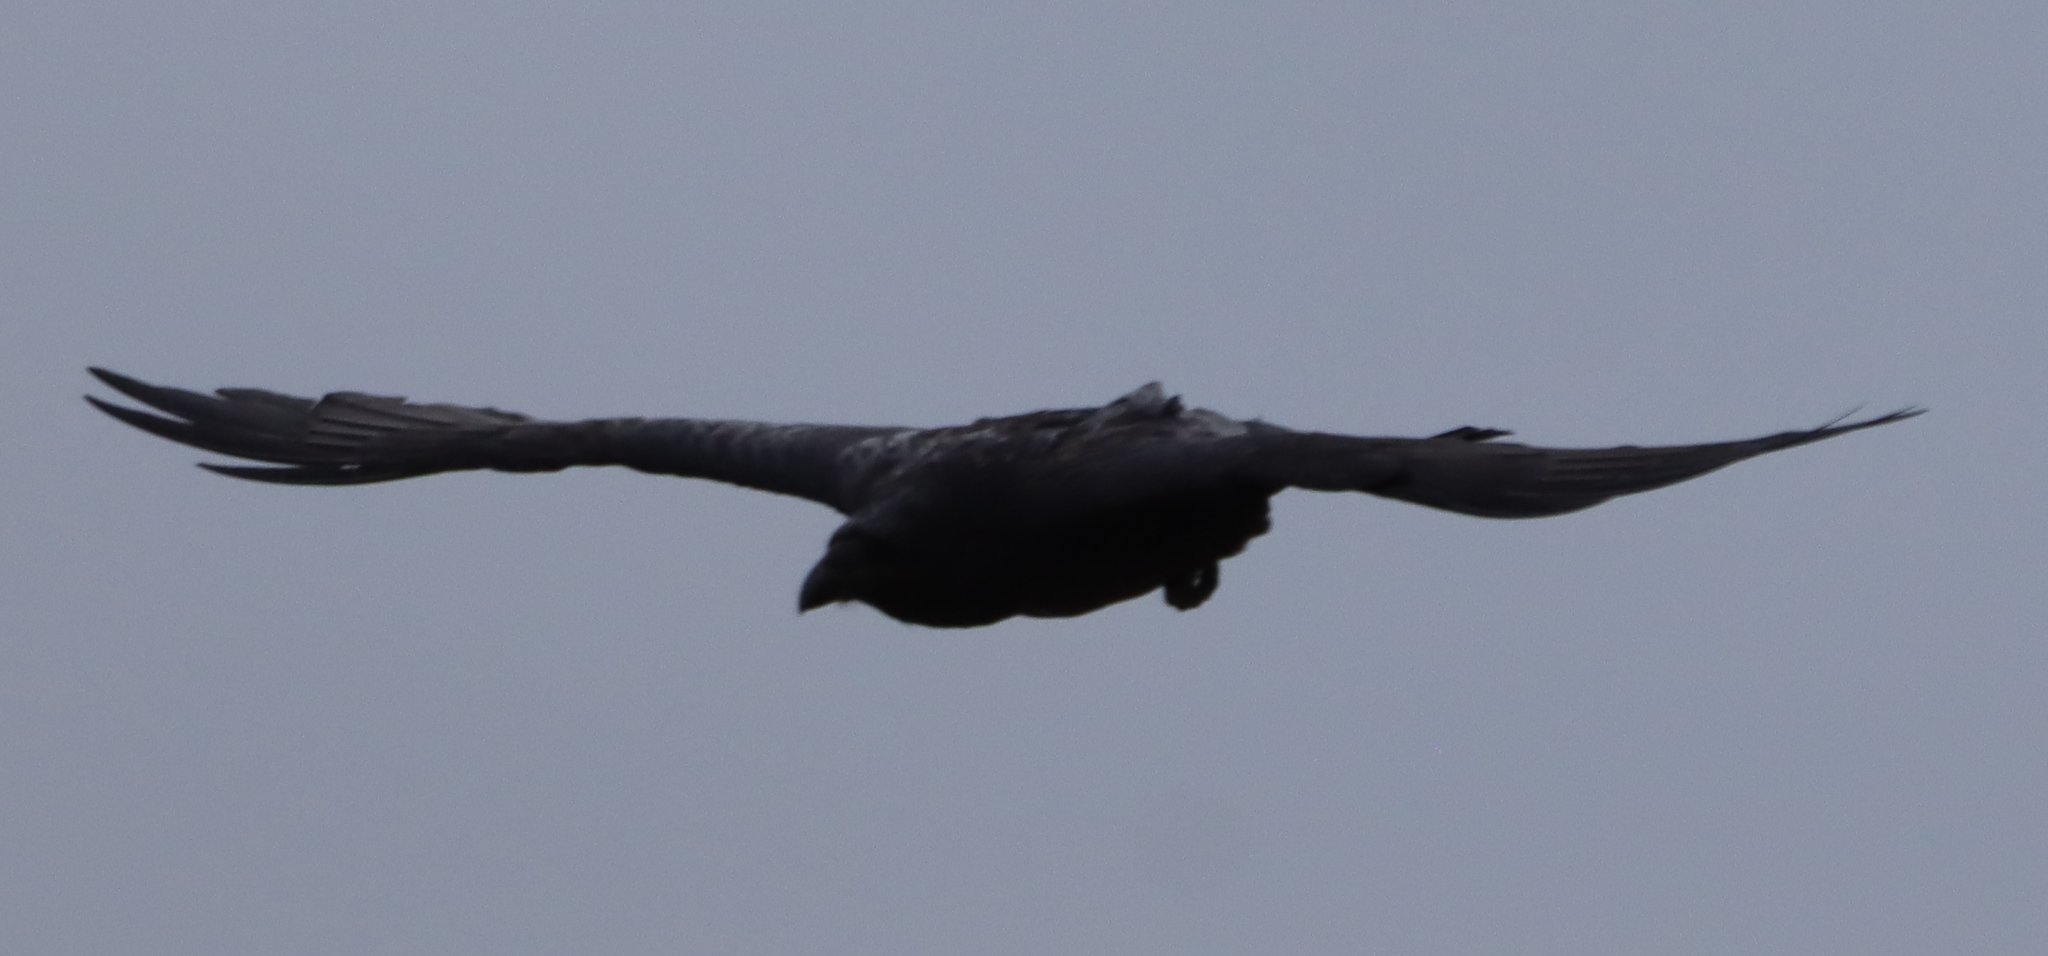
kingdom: Animalia
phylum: Chordata
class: Aves
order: Passeriformes
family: Corvidae
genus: Corvus
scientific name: Corvus corax
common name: Common raven
